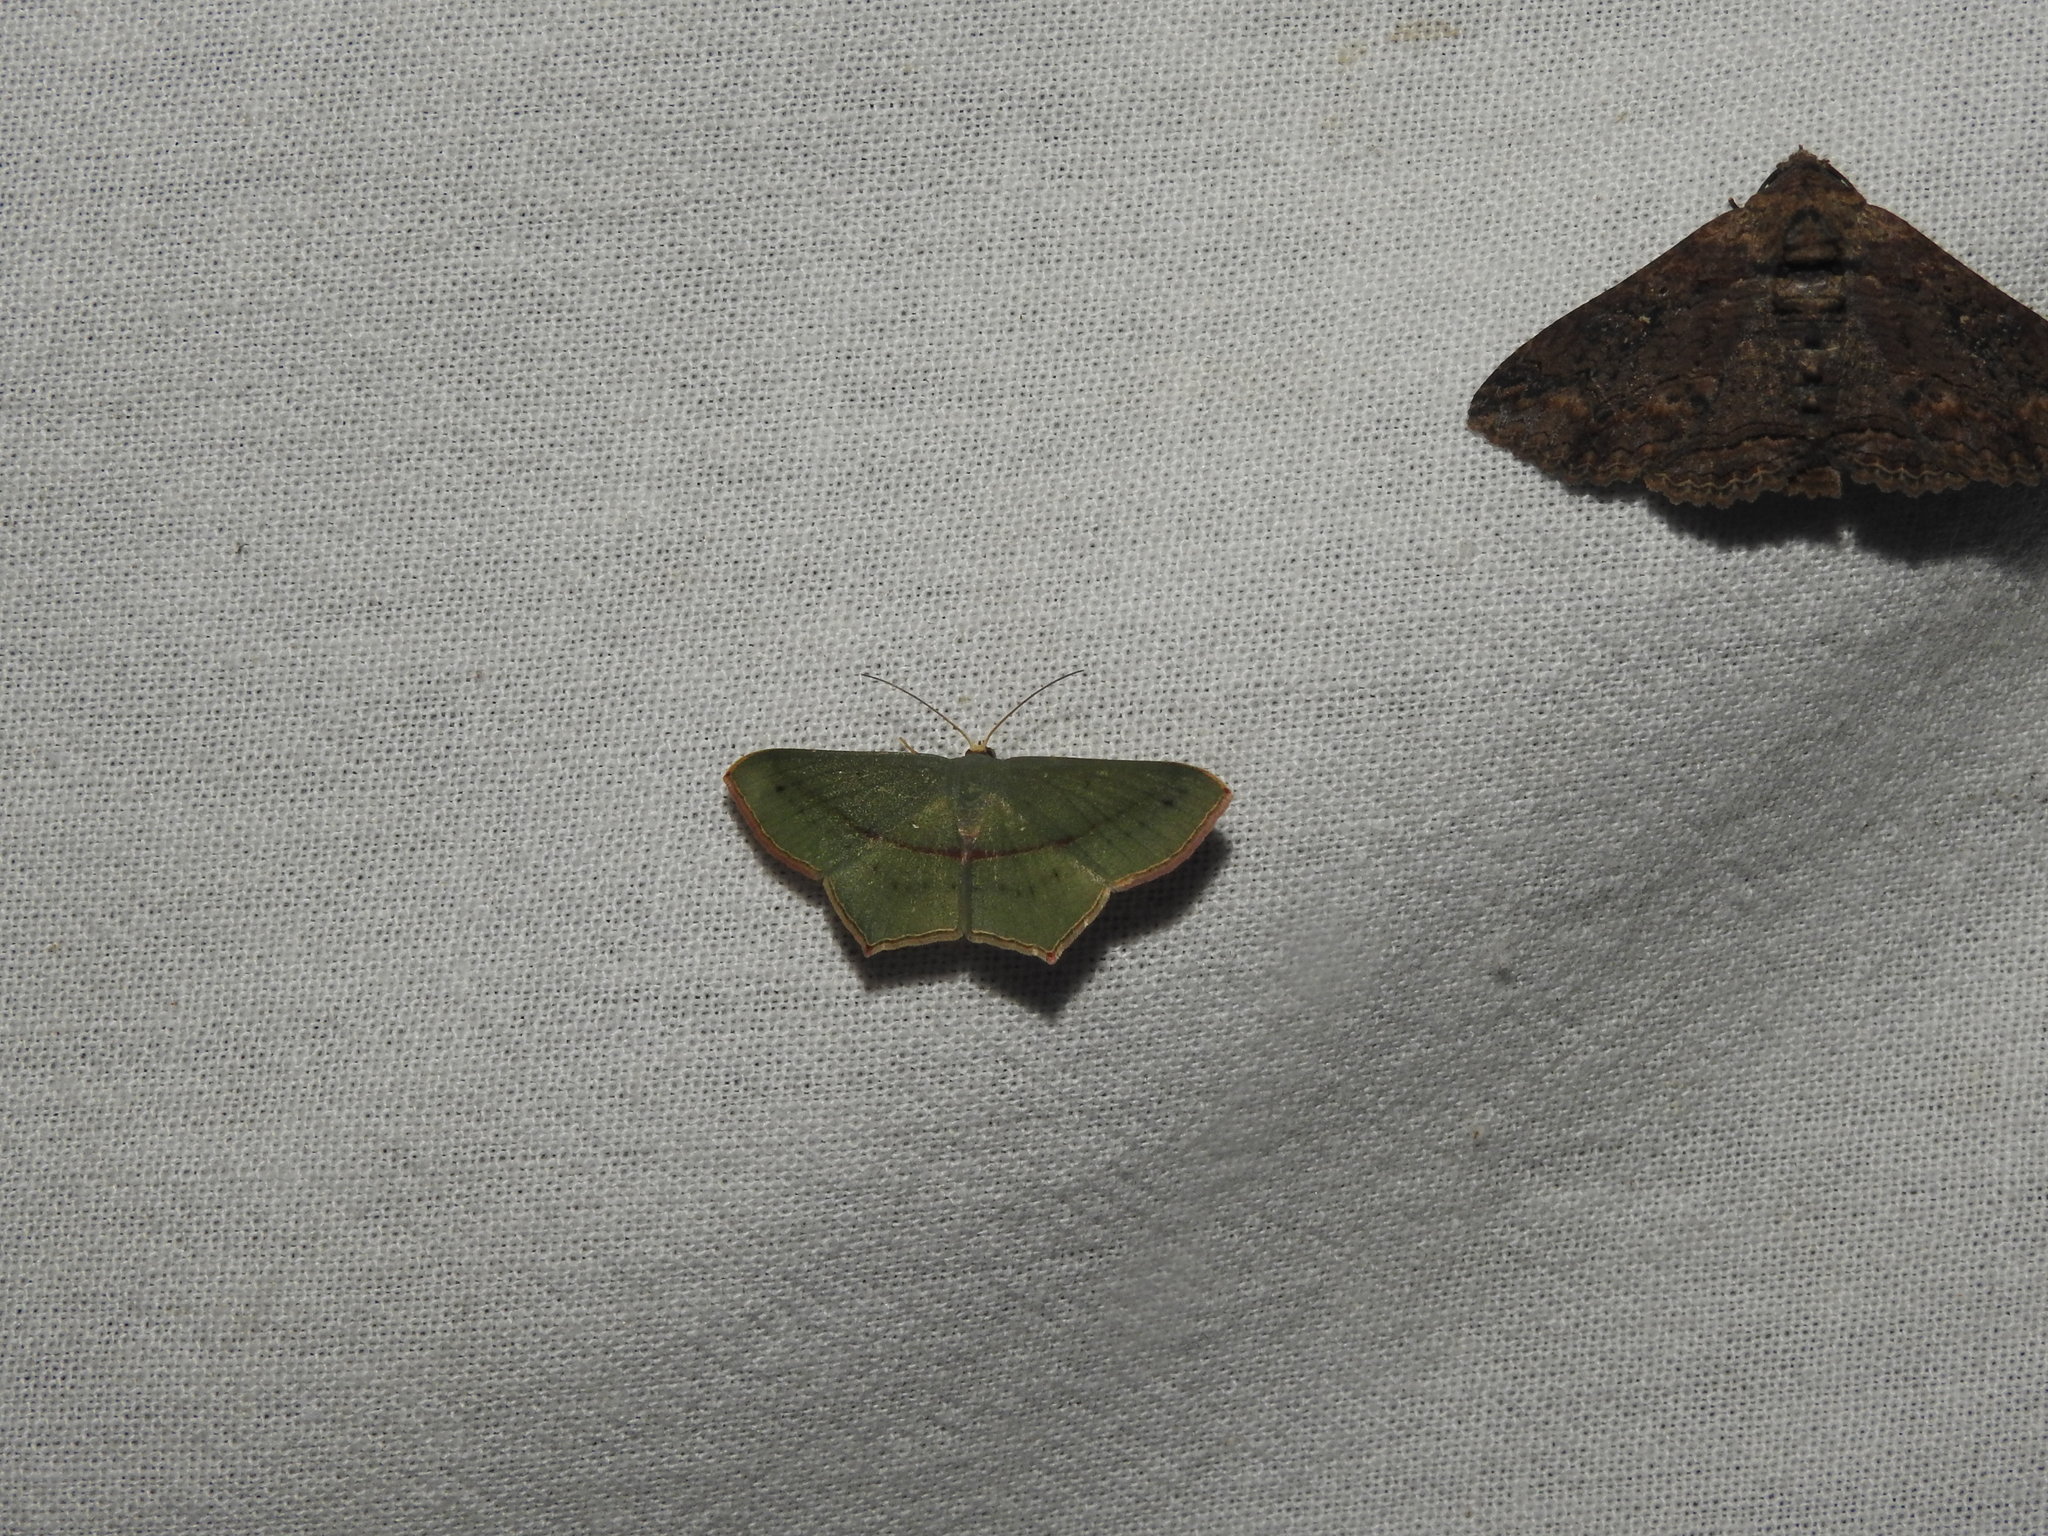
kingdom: Animalia
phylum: Arthropoda
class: Insecta
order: Lepidoptera
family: Geometridae
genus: Traminda
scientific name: Traminda mundissima
